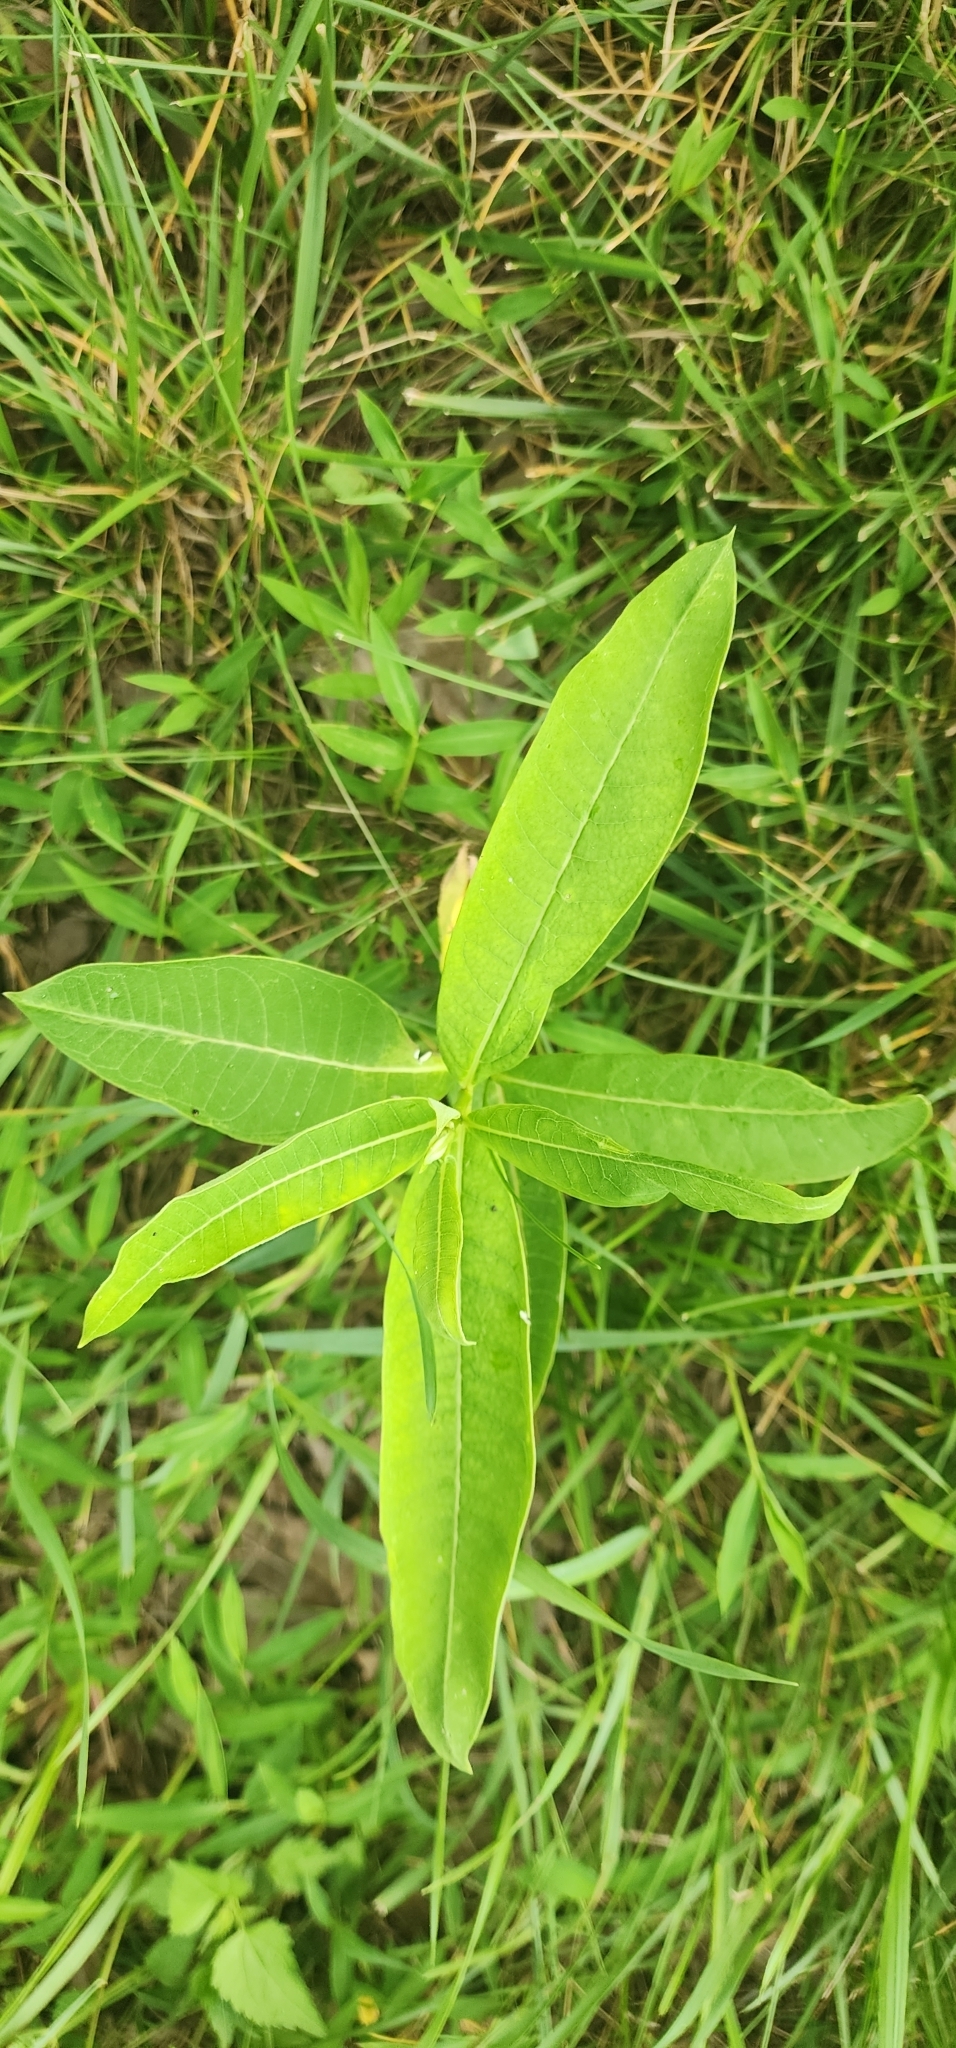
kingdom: Plantae
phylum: Tracheophyta
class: Magnoliopsida
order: Gentianales
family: Apocynaceae
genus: Asclepias
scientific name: Asclepias syriaca
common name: Common milkweed
